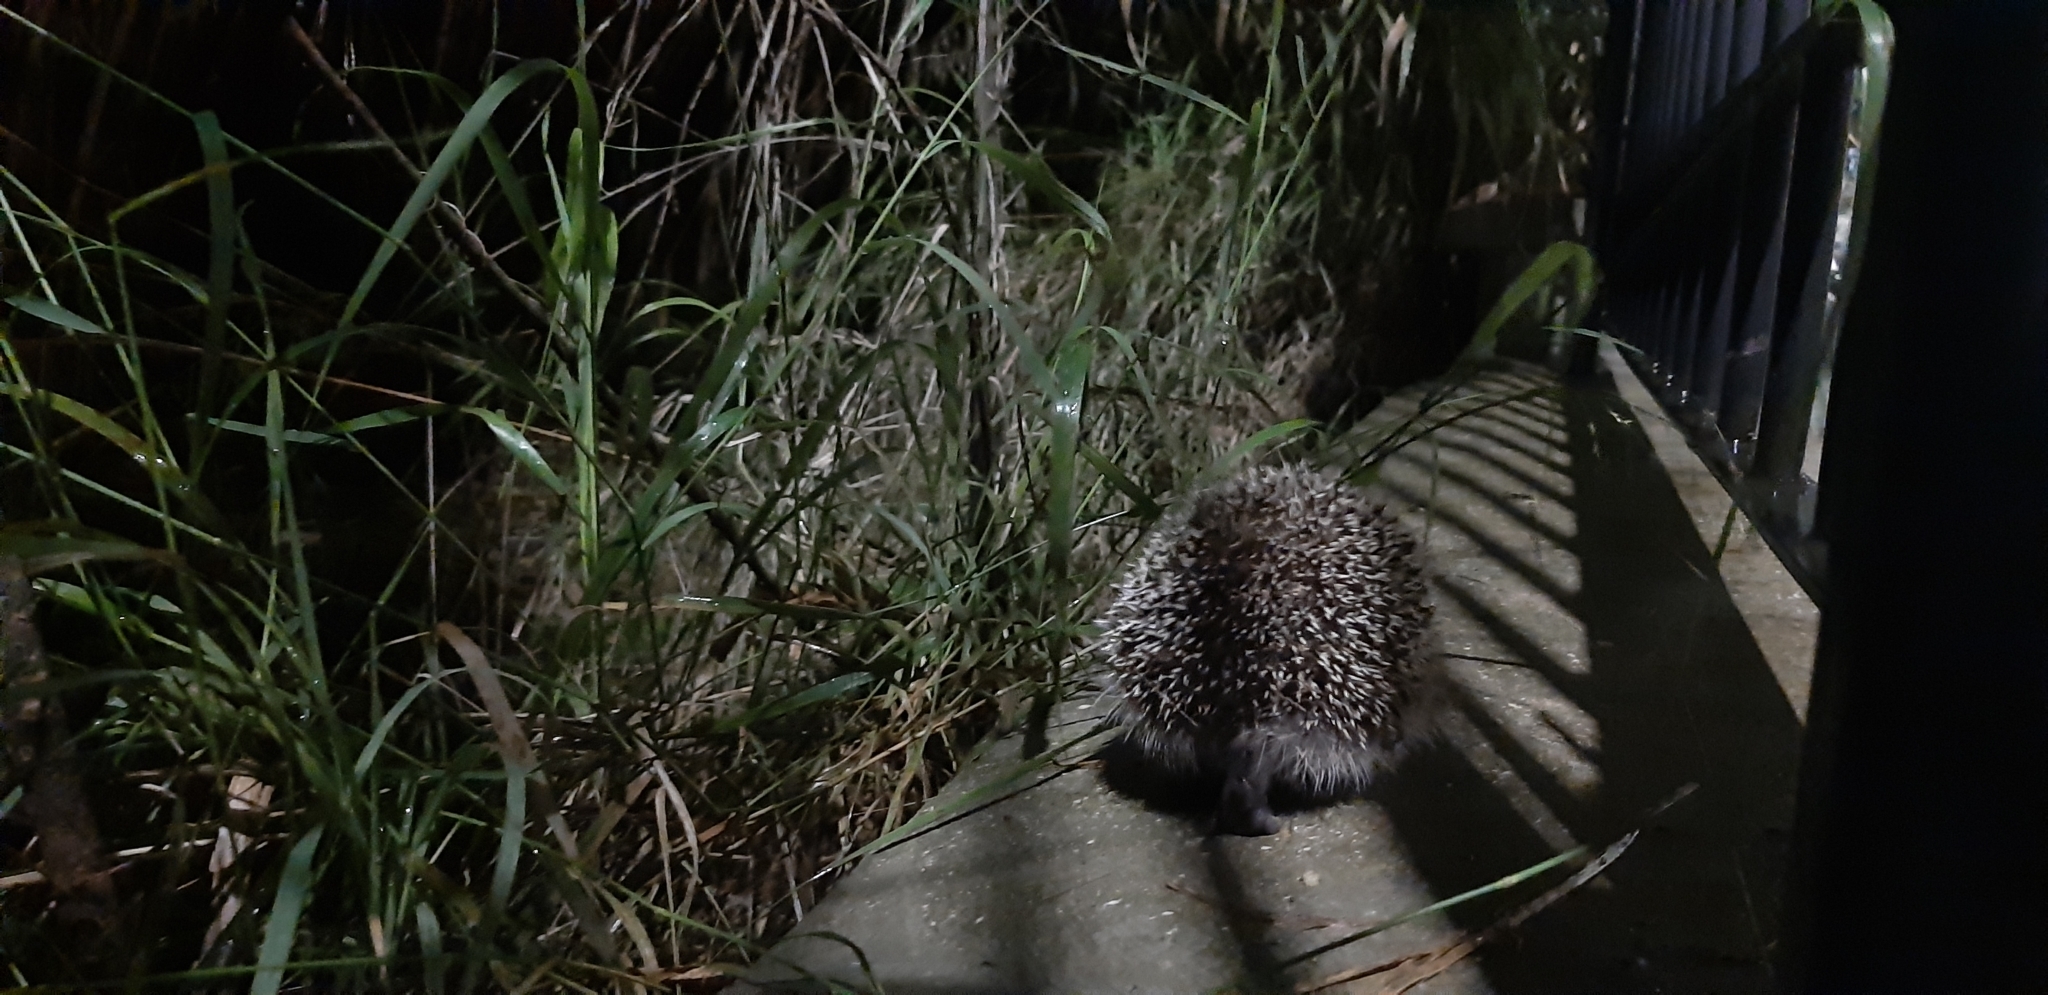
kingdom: Animalia
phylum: Chordata
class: Mammalia
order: Erinaceomorpha
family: Erinaceidae
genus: Erinaceus
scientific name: Erinaceus europaeus
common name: West european hedgehog
